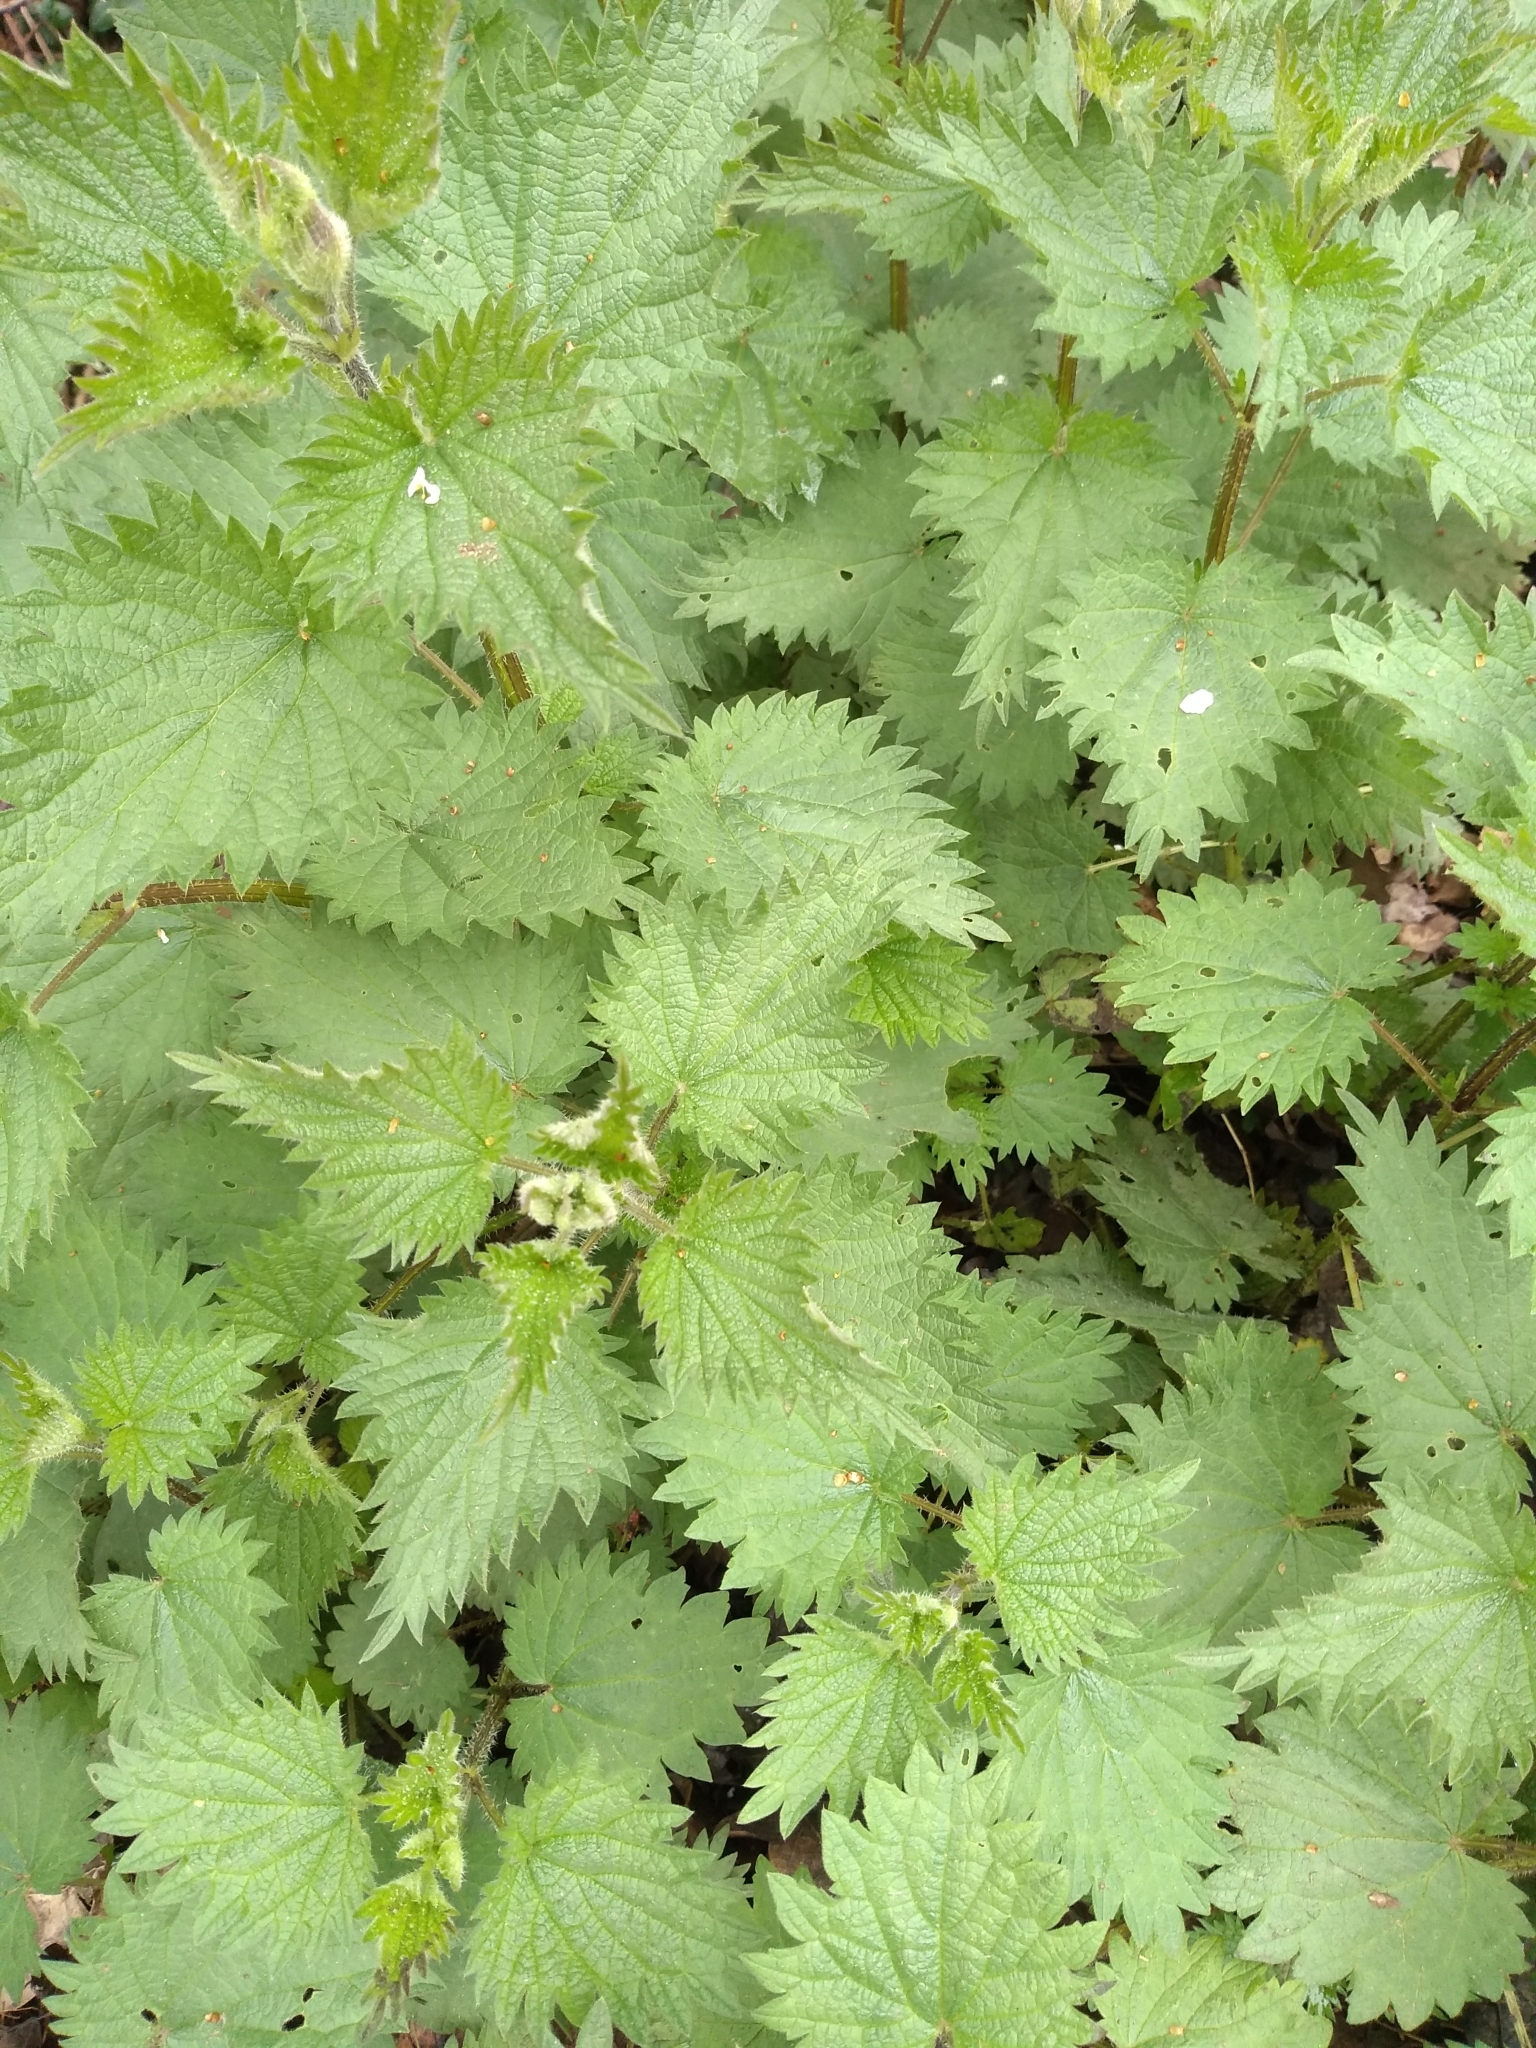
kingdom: Plantae
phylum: Tracheophyta
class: Magnoliopsida
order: Rosales
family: Urticaceae
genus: Urtica
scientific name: Urtica dioica
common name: Common nettle
